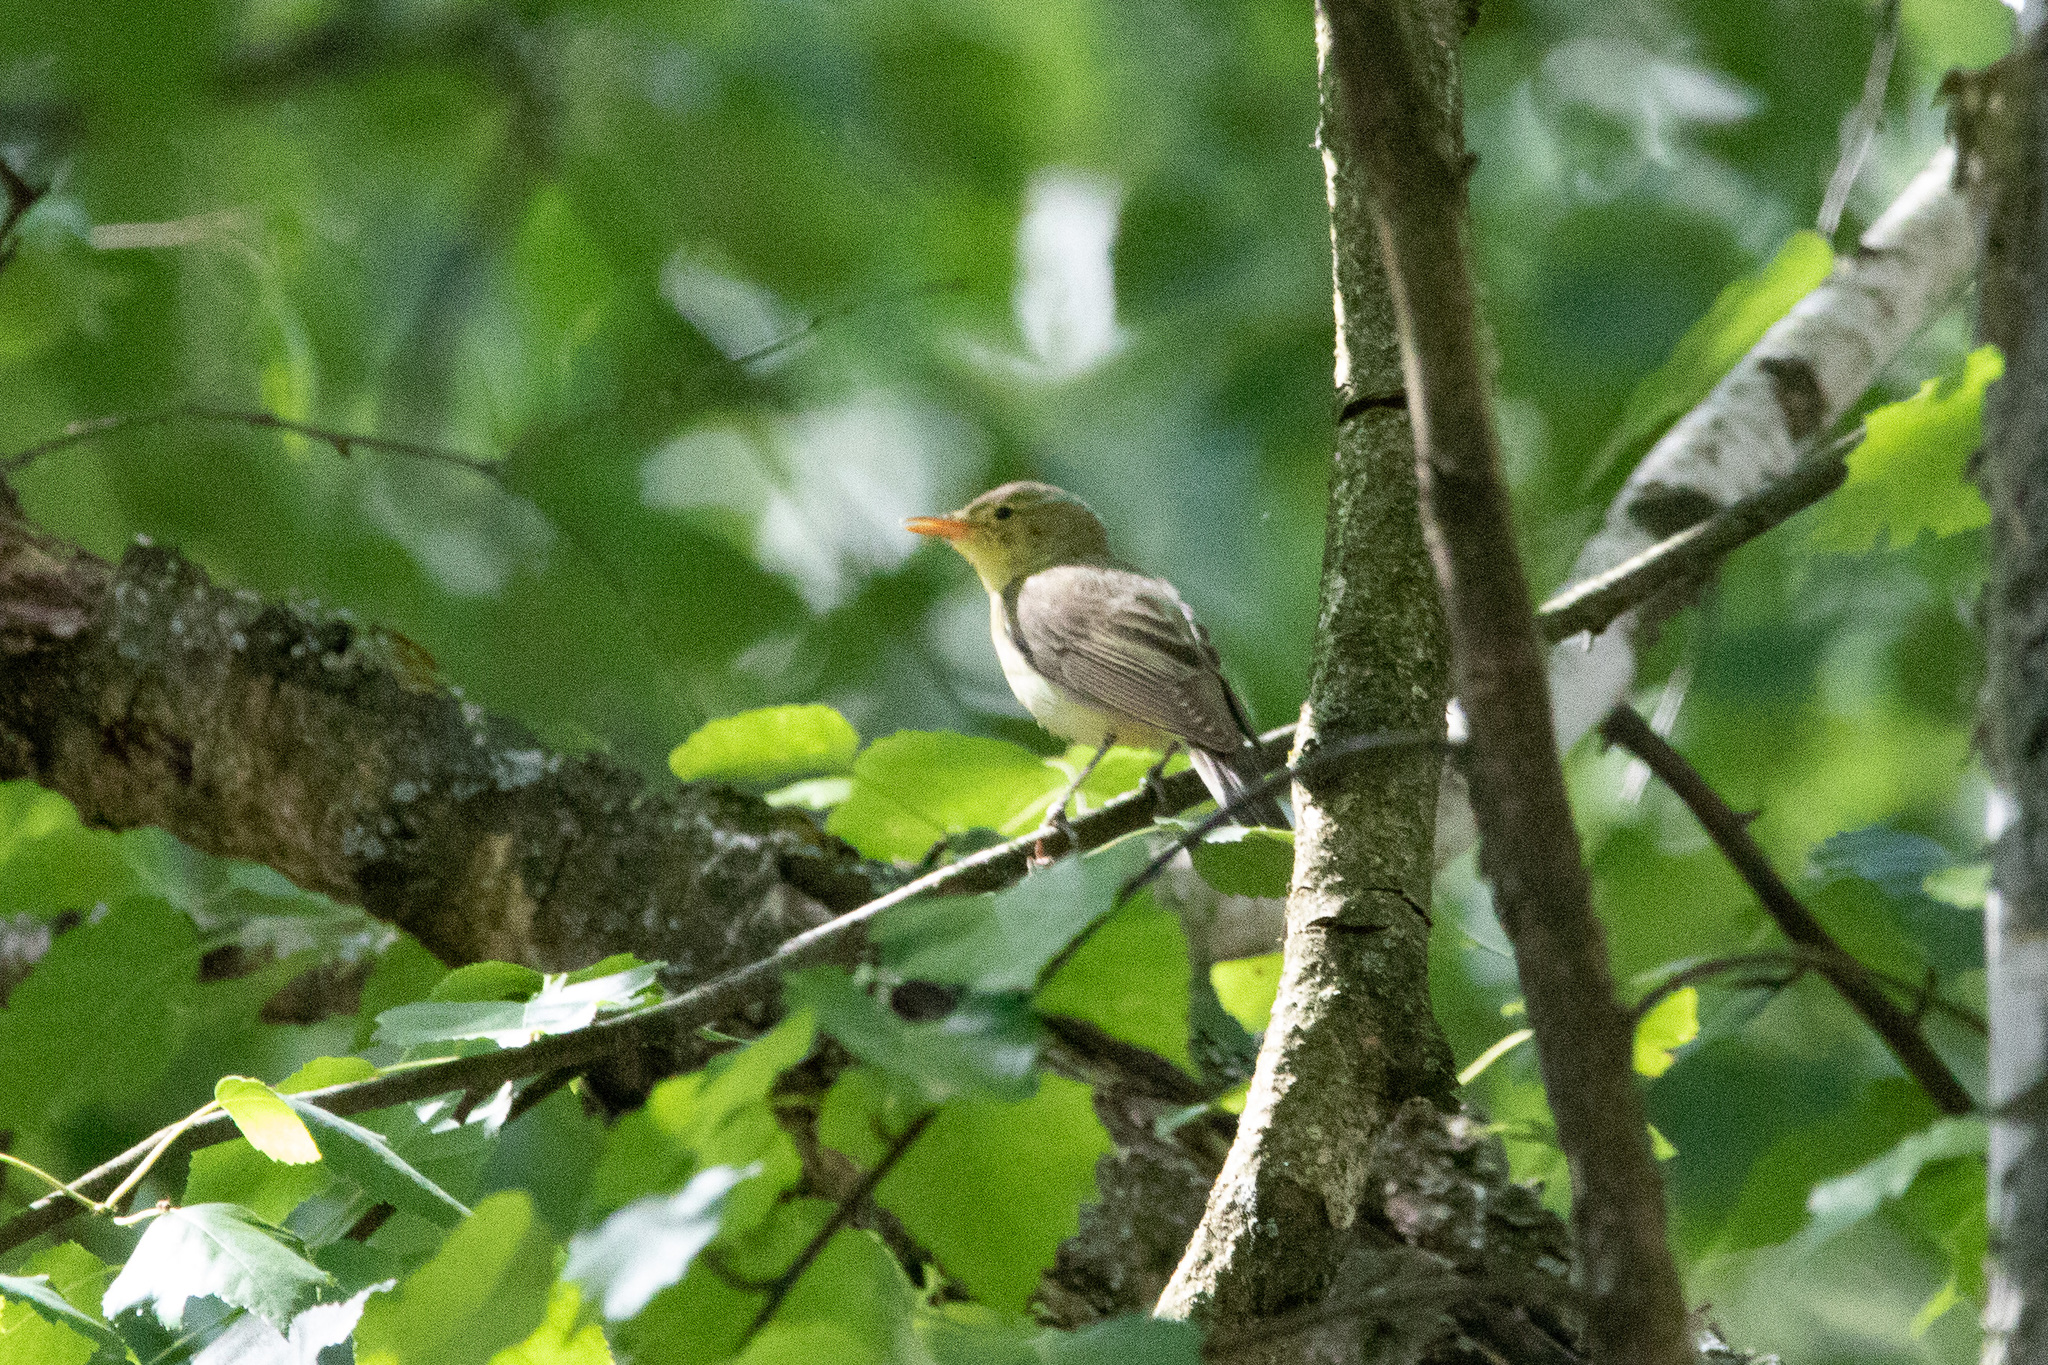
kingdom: Animalia
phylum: Chordata
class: Aves
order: Passeriformes
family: Acrocephalidae
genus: Hippolais
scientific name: Hippolais icterina
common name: Icterine warbler
